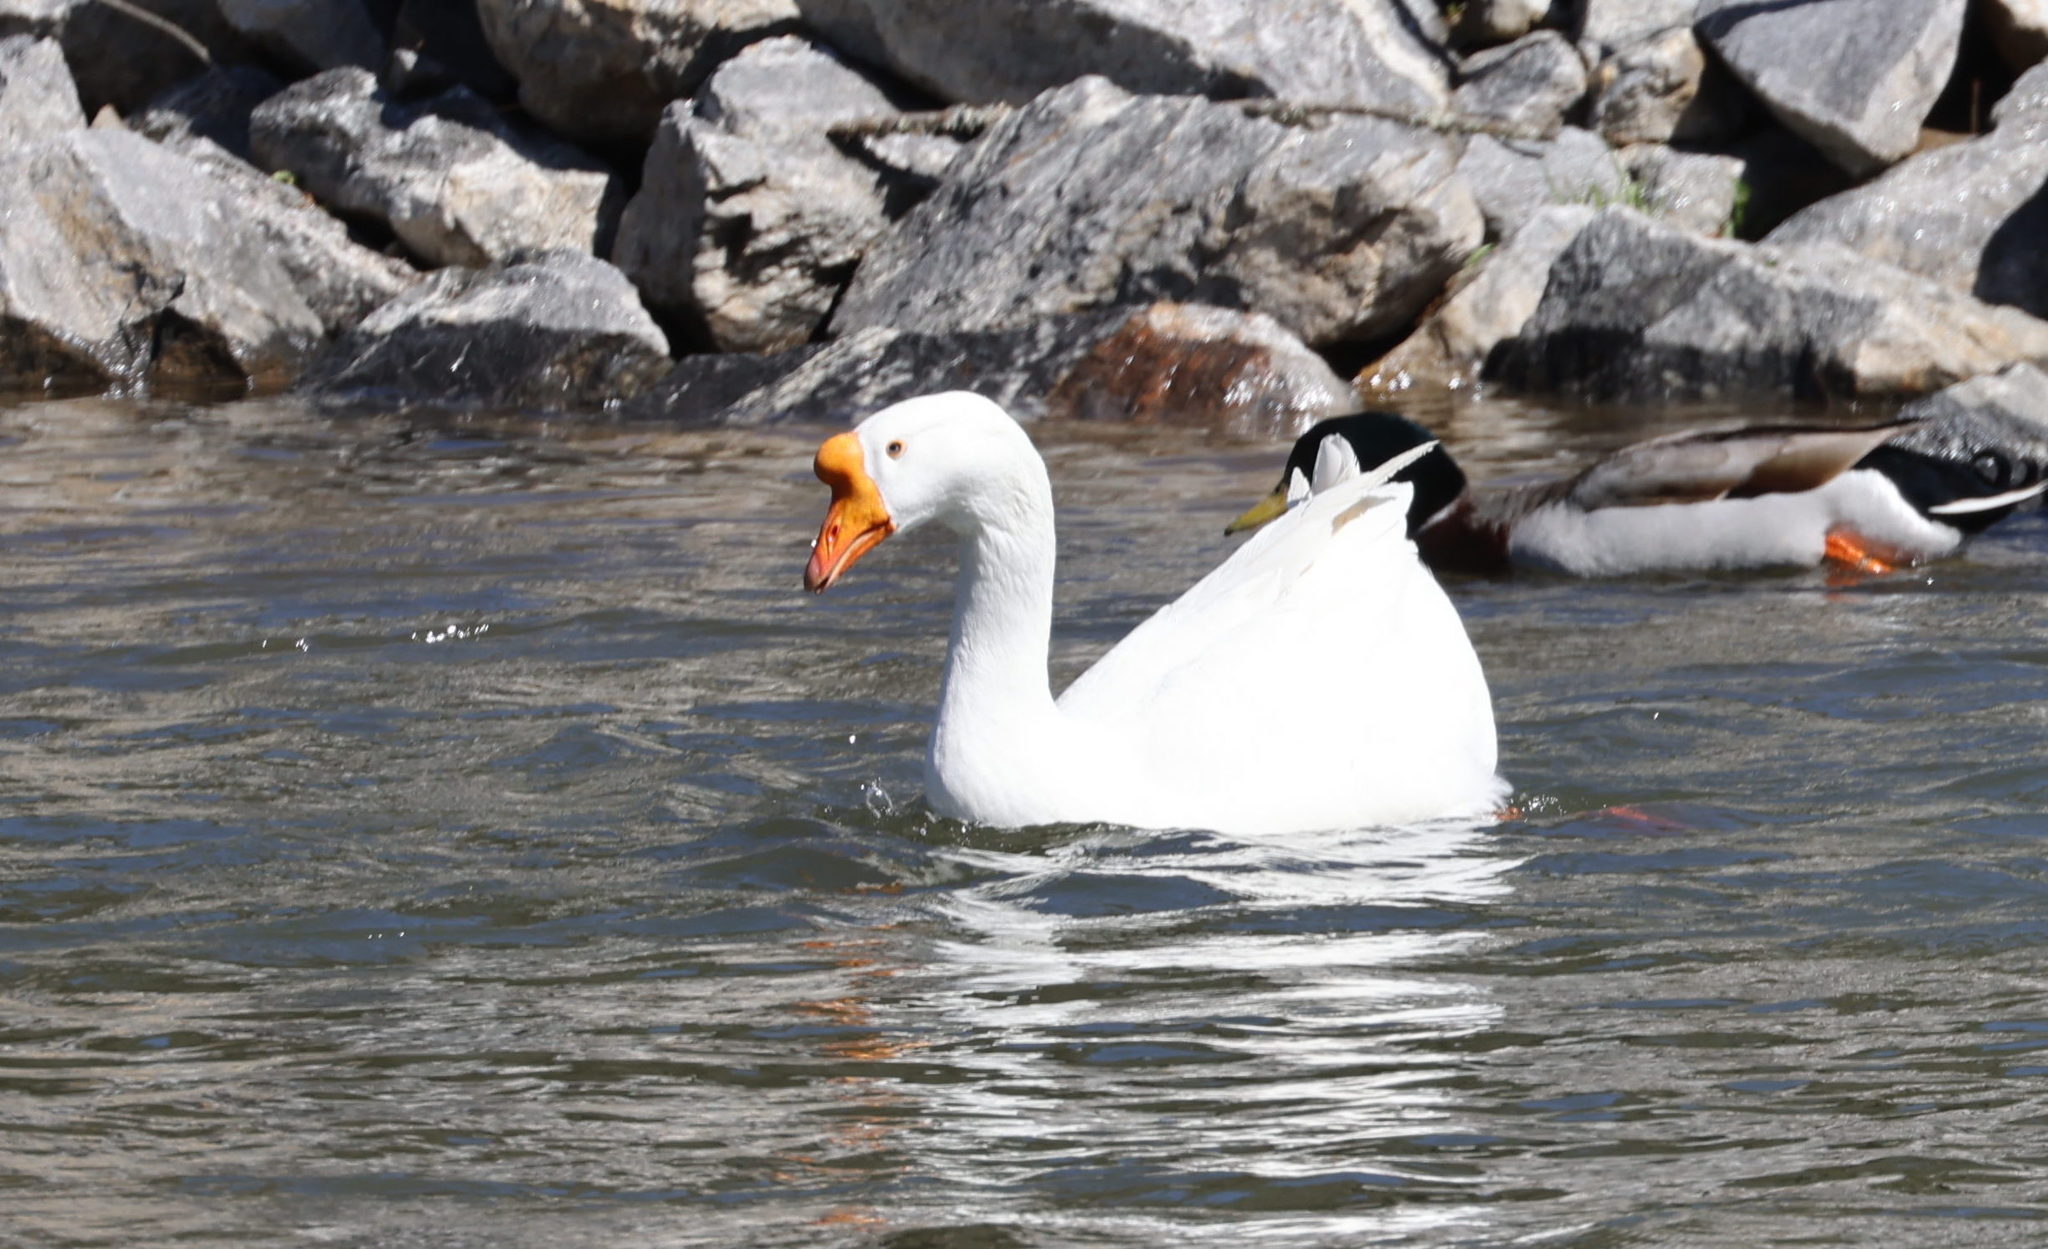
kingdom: Animalia
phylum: Chordata
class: Aves
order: Anseriformes
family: Anatidae
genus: Anser
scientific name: Anser cygnoides
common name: Swan goose
